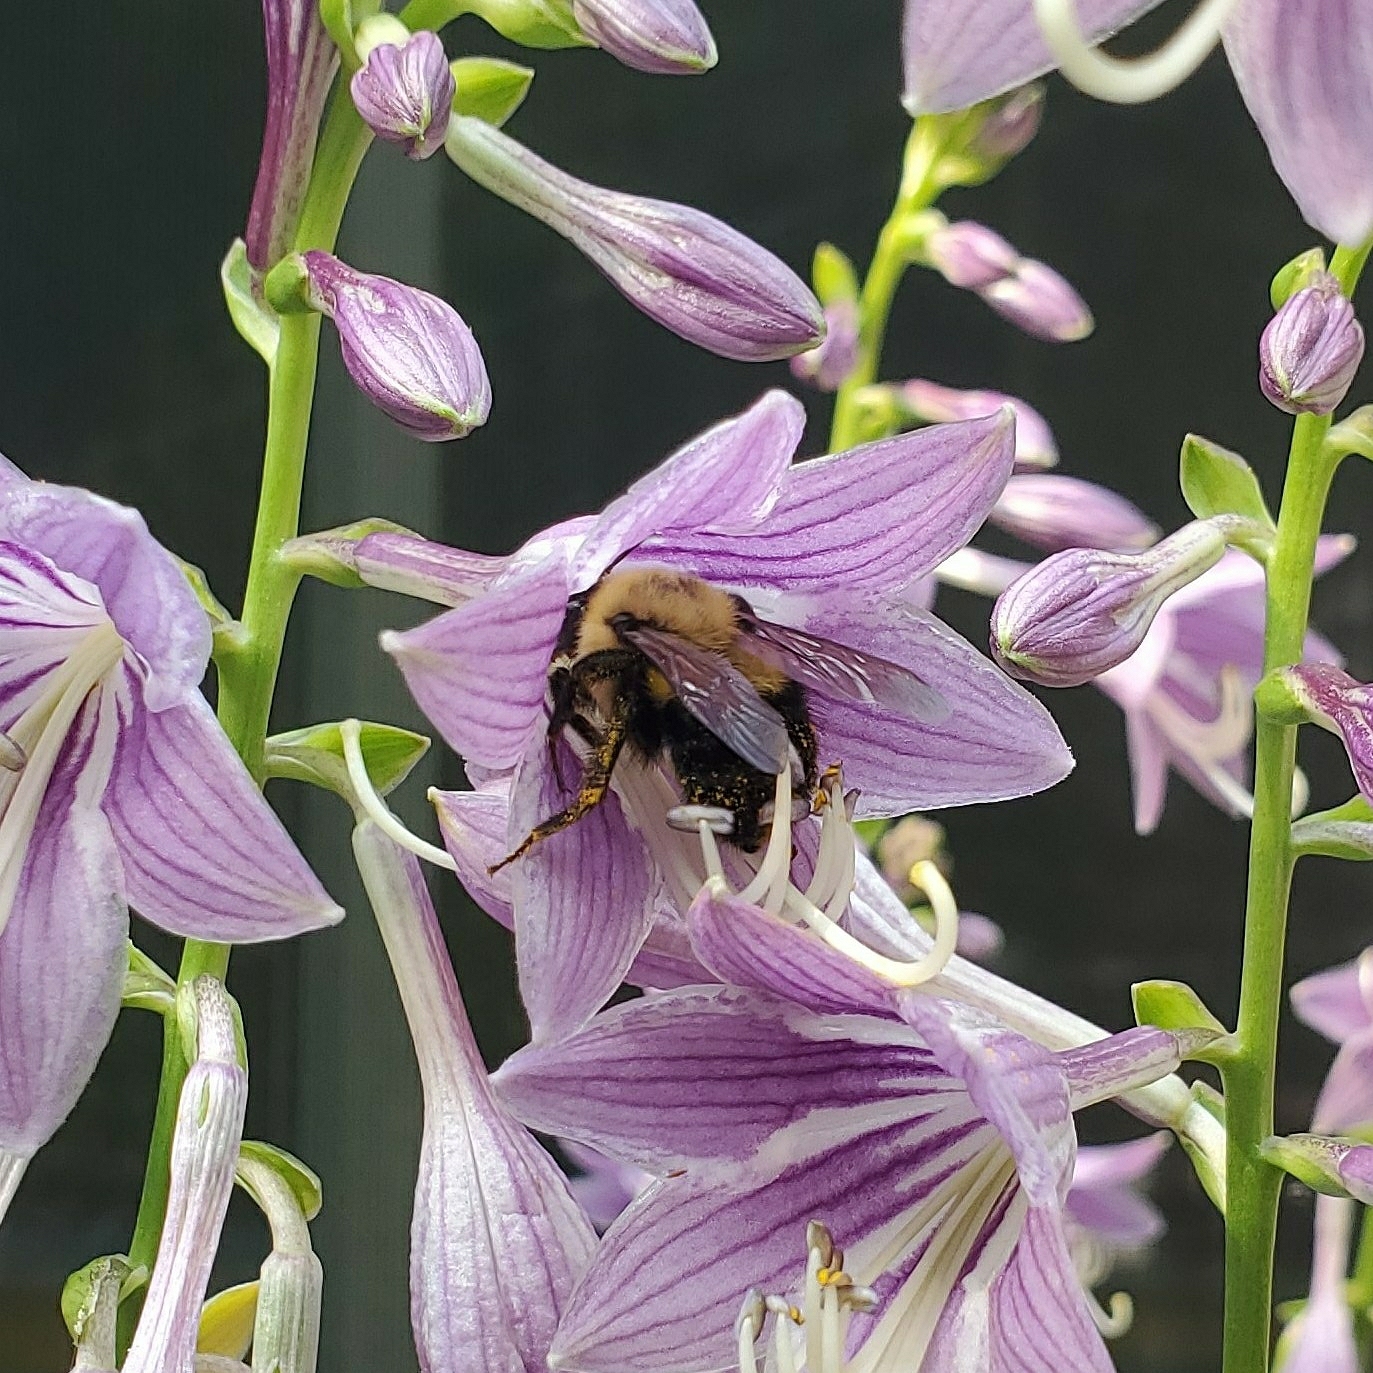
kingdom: Animalia
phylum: Arthropoda
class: Insecta
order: Hymenoptera
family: Apidae
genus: Bombus
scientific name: Bombus bimaculatus
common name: Two-spotted bumble bee
